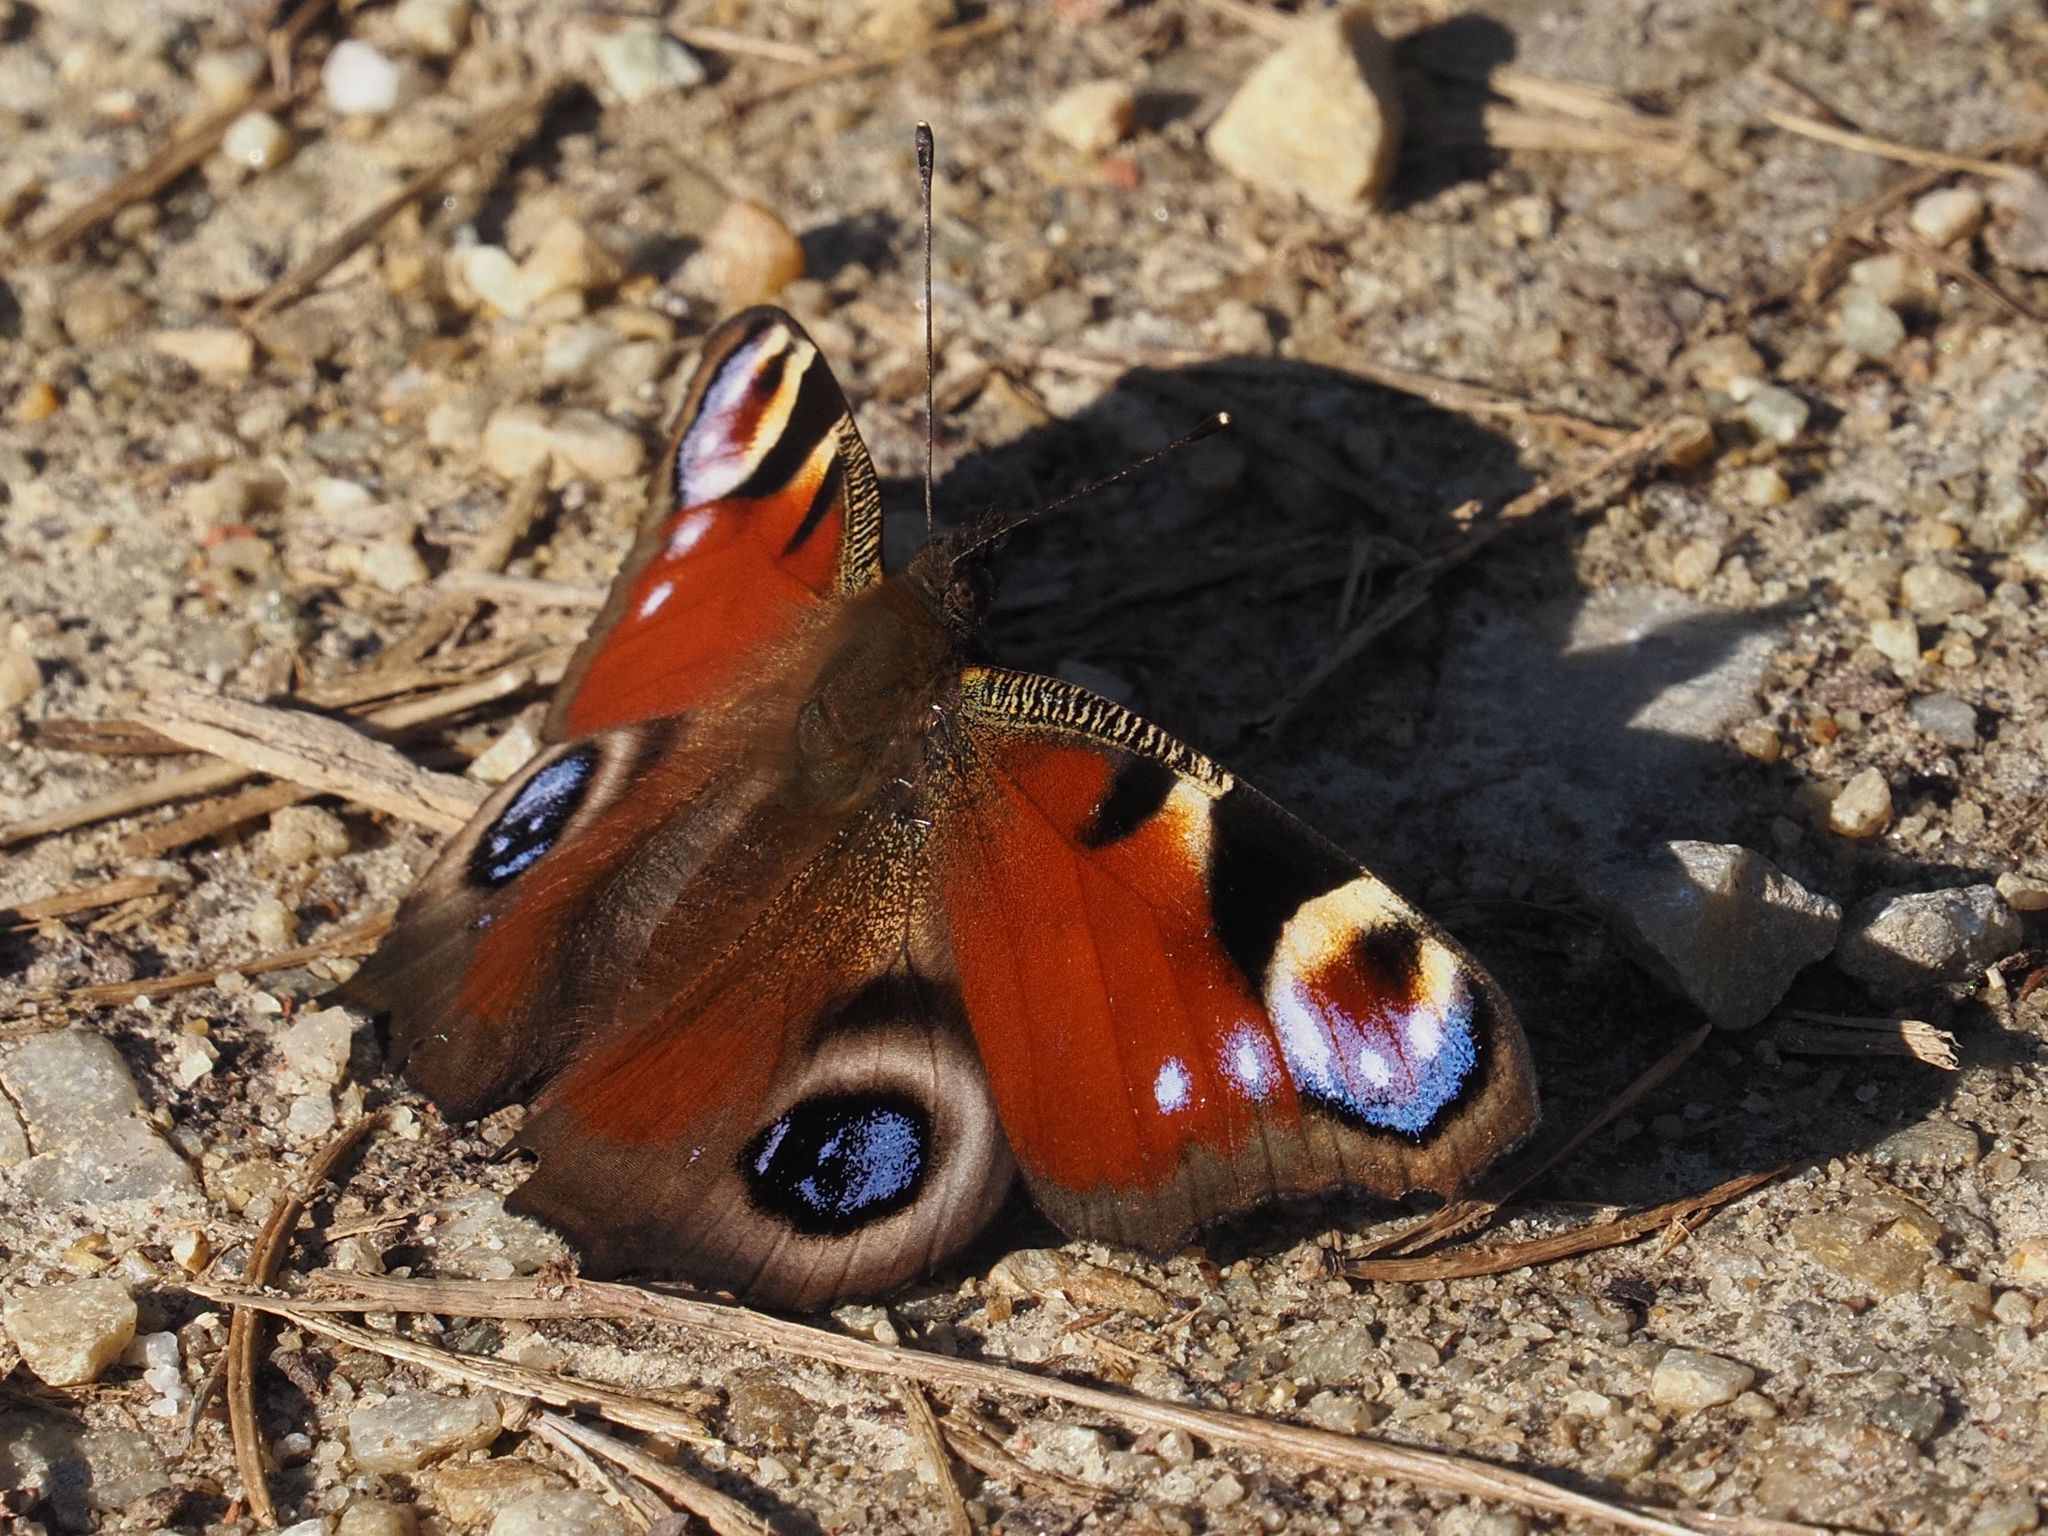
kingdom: Animalia
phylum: Arthropoda
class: Insecta
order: Lepidoptera
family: Nymphalidae
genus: Aglais
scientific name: Aglais io
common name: Peacock
